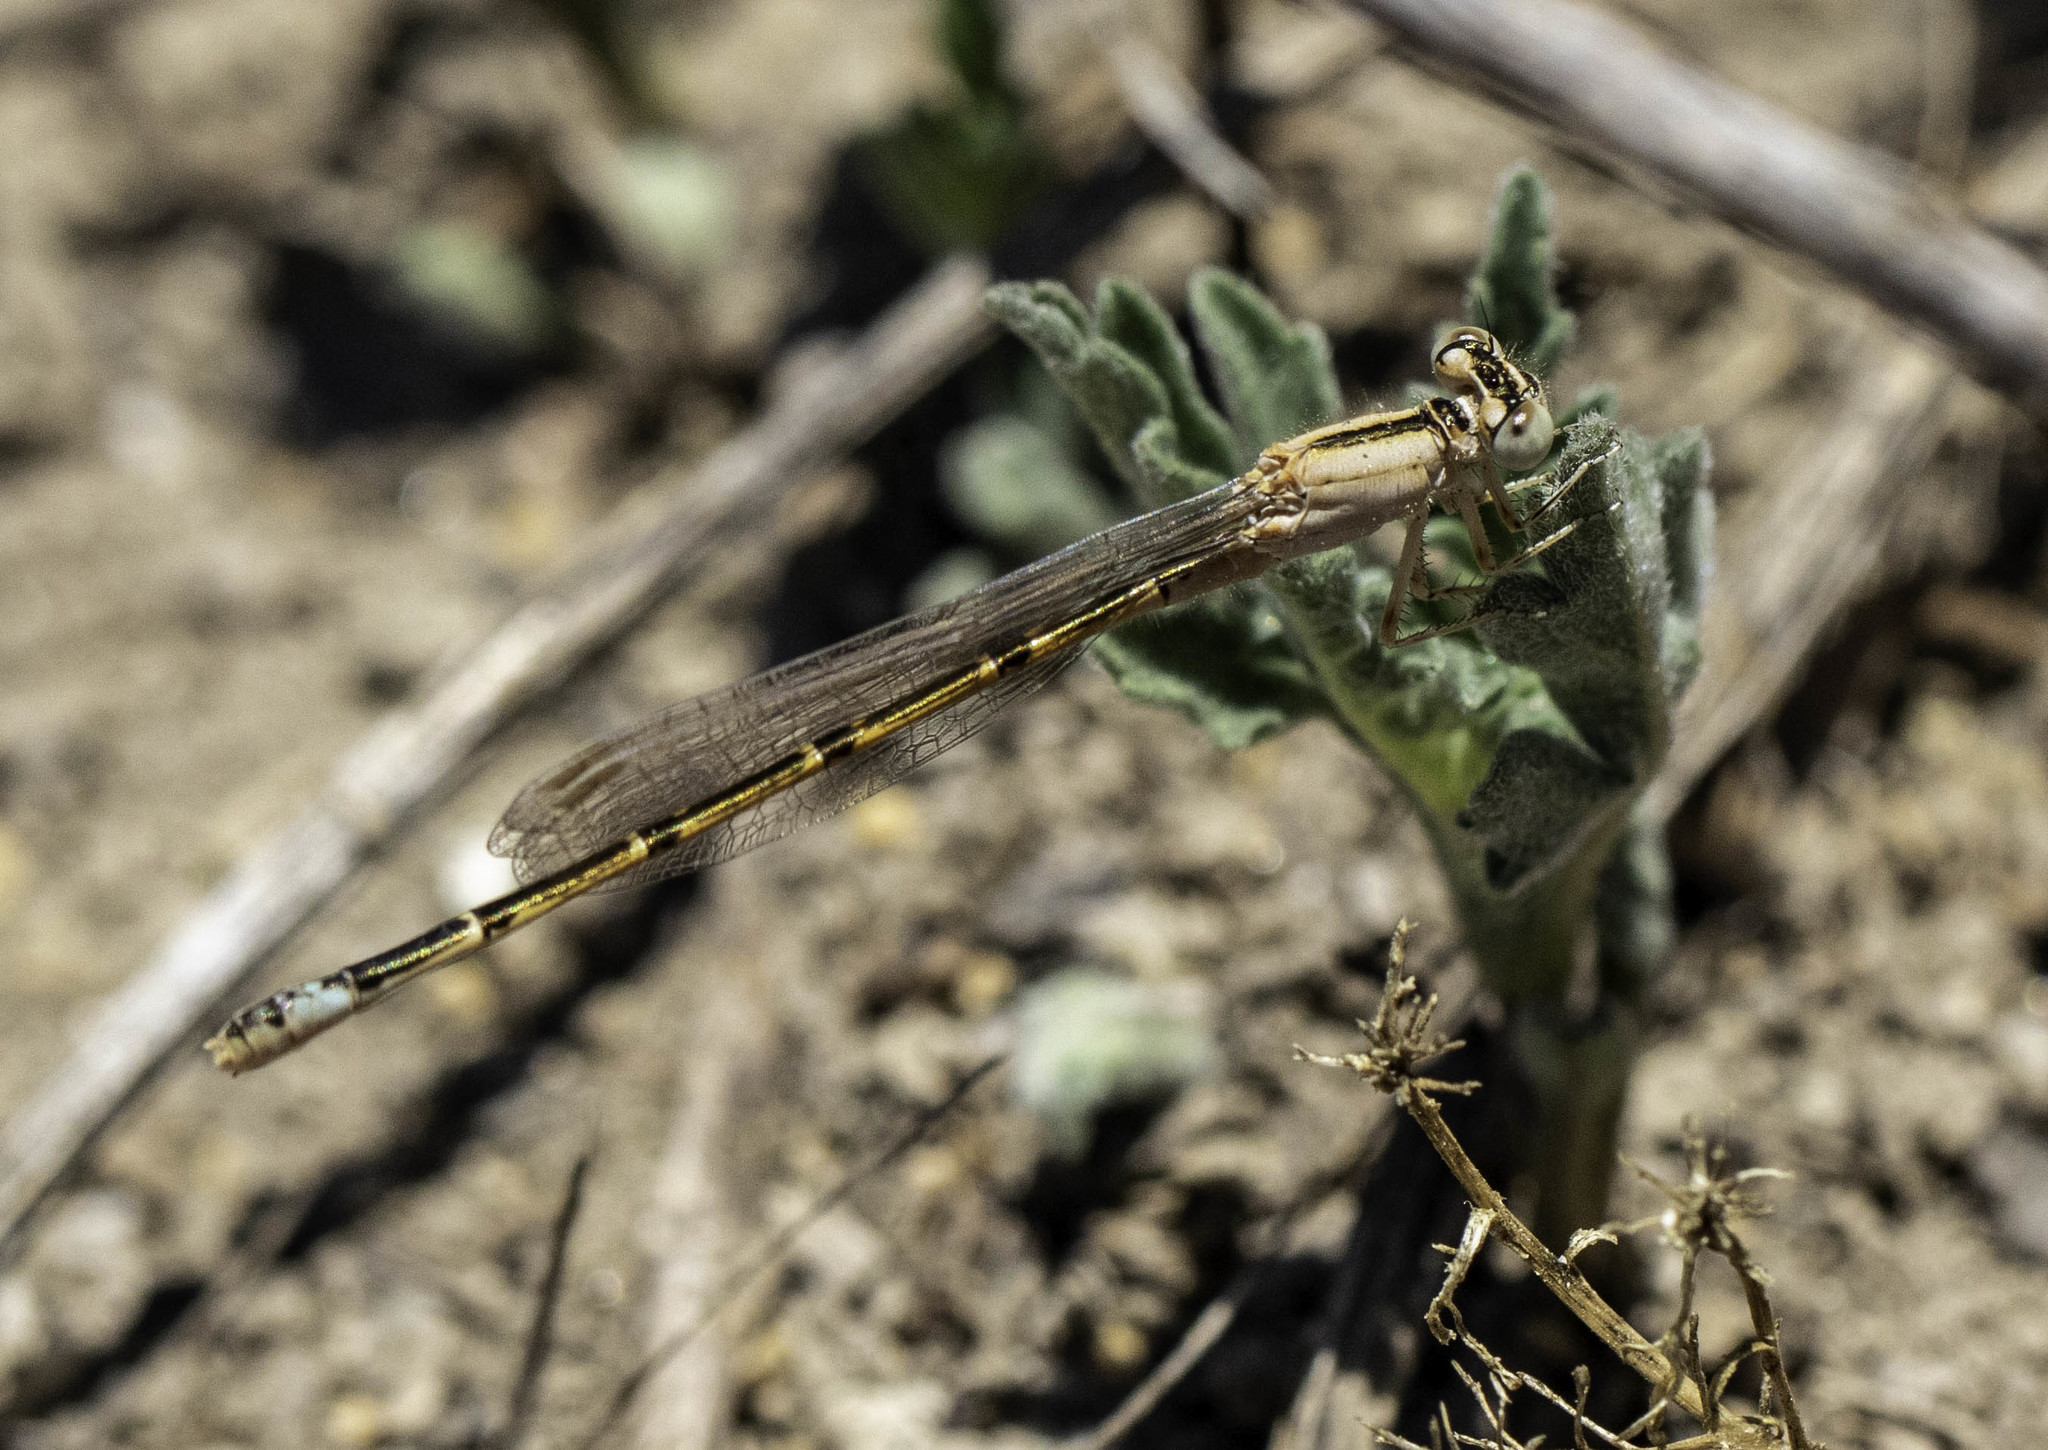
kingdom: Animalia
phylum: Arthropoda
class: Insecta
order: Odonata
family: Coenagrionidae
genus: Ischnura
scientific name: Ischnura barberi
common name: Desert forktail
